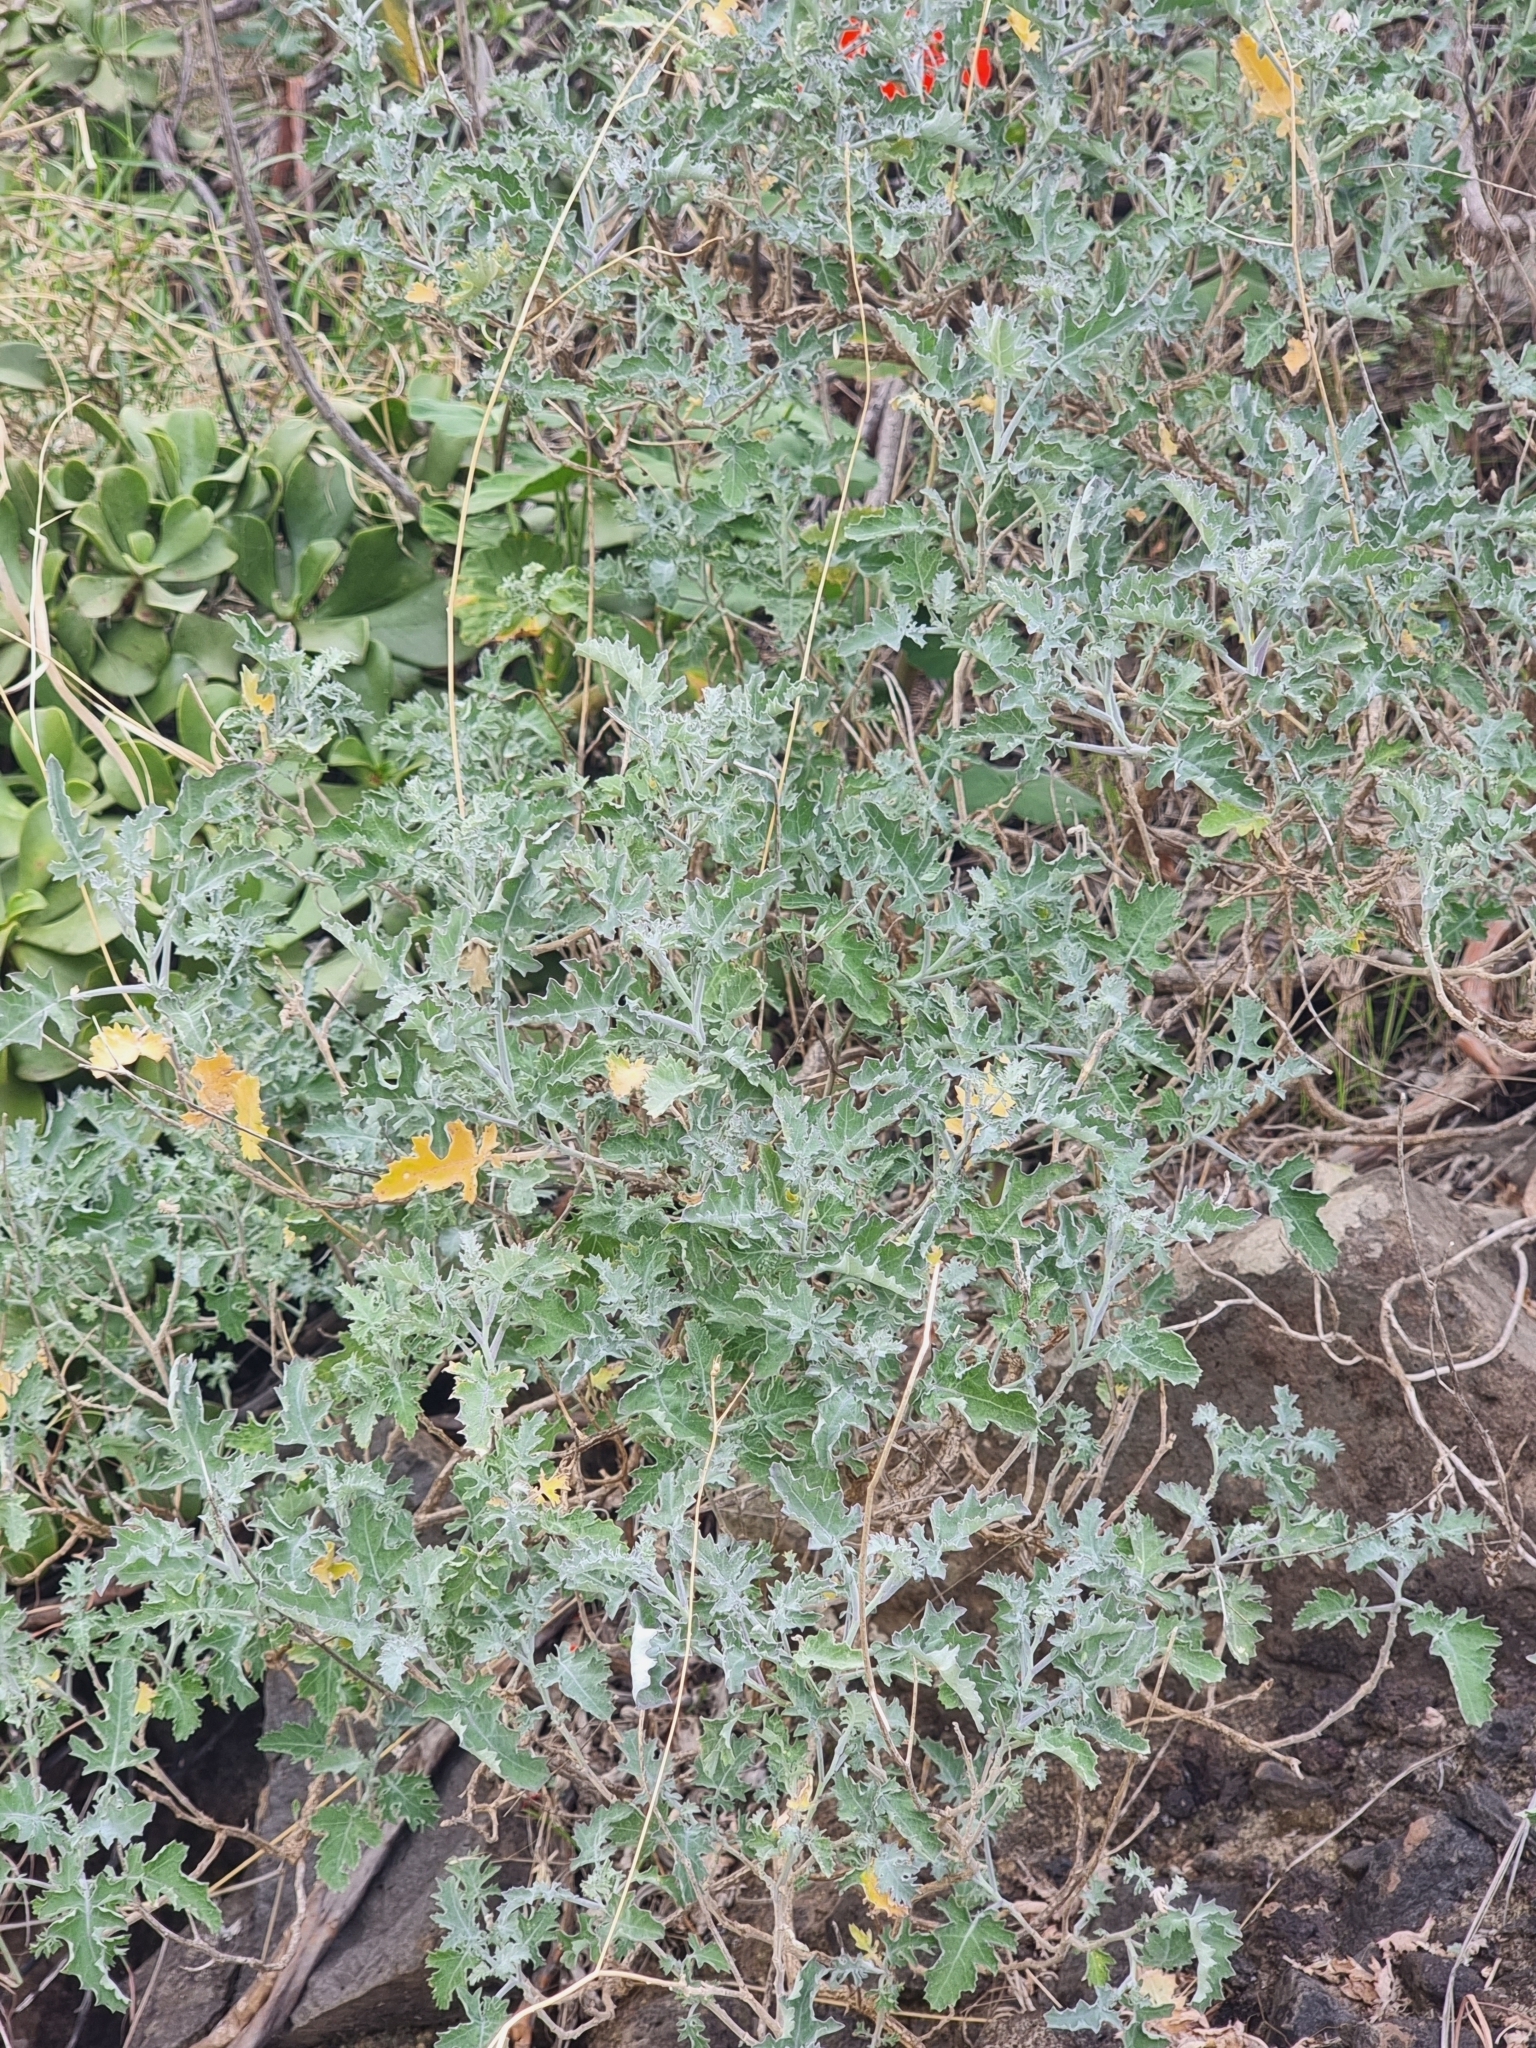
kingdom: Plantae
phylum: Tracheophyta
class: Magnoliopsida
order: Brassicales
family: Brassicaceae
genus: Crambe
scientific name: Crambe fruticosa
